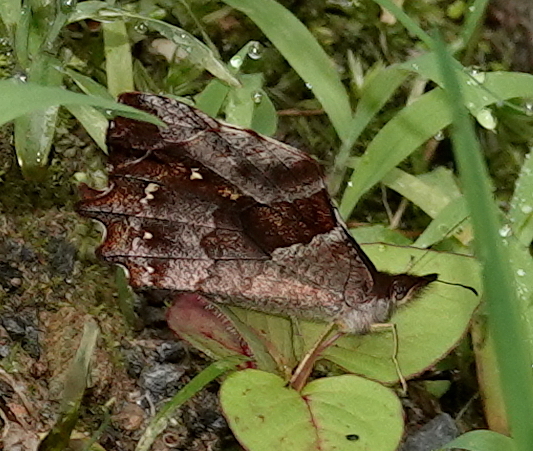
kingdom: Animalia
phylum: Arthropoda
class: Insecta
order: Lepidoptera
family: Nymphalidae
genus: Mygona
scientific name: Mygona irmina
